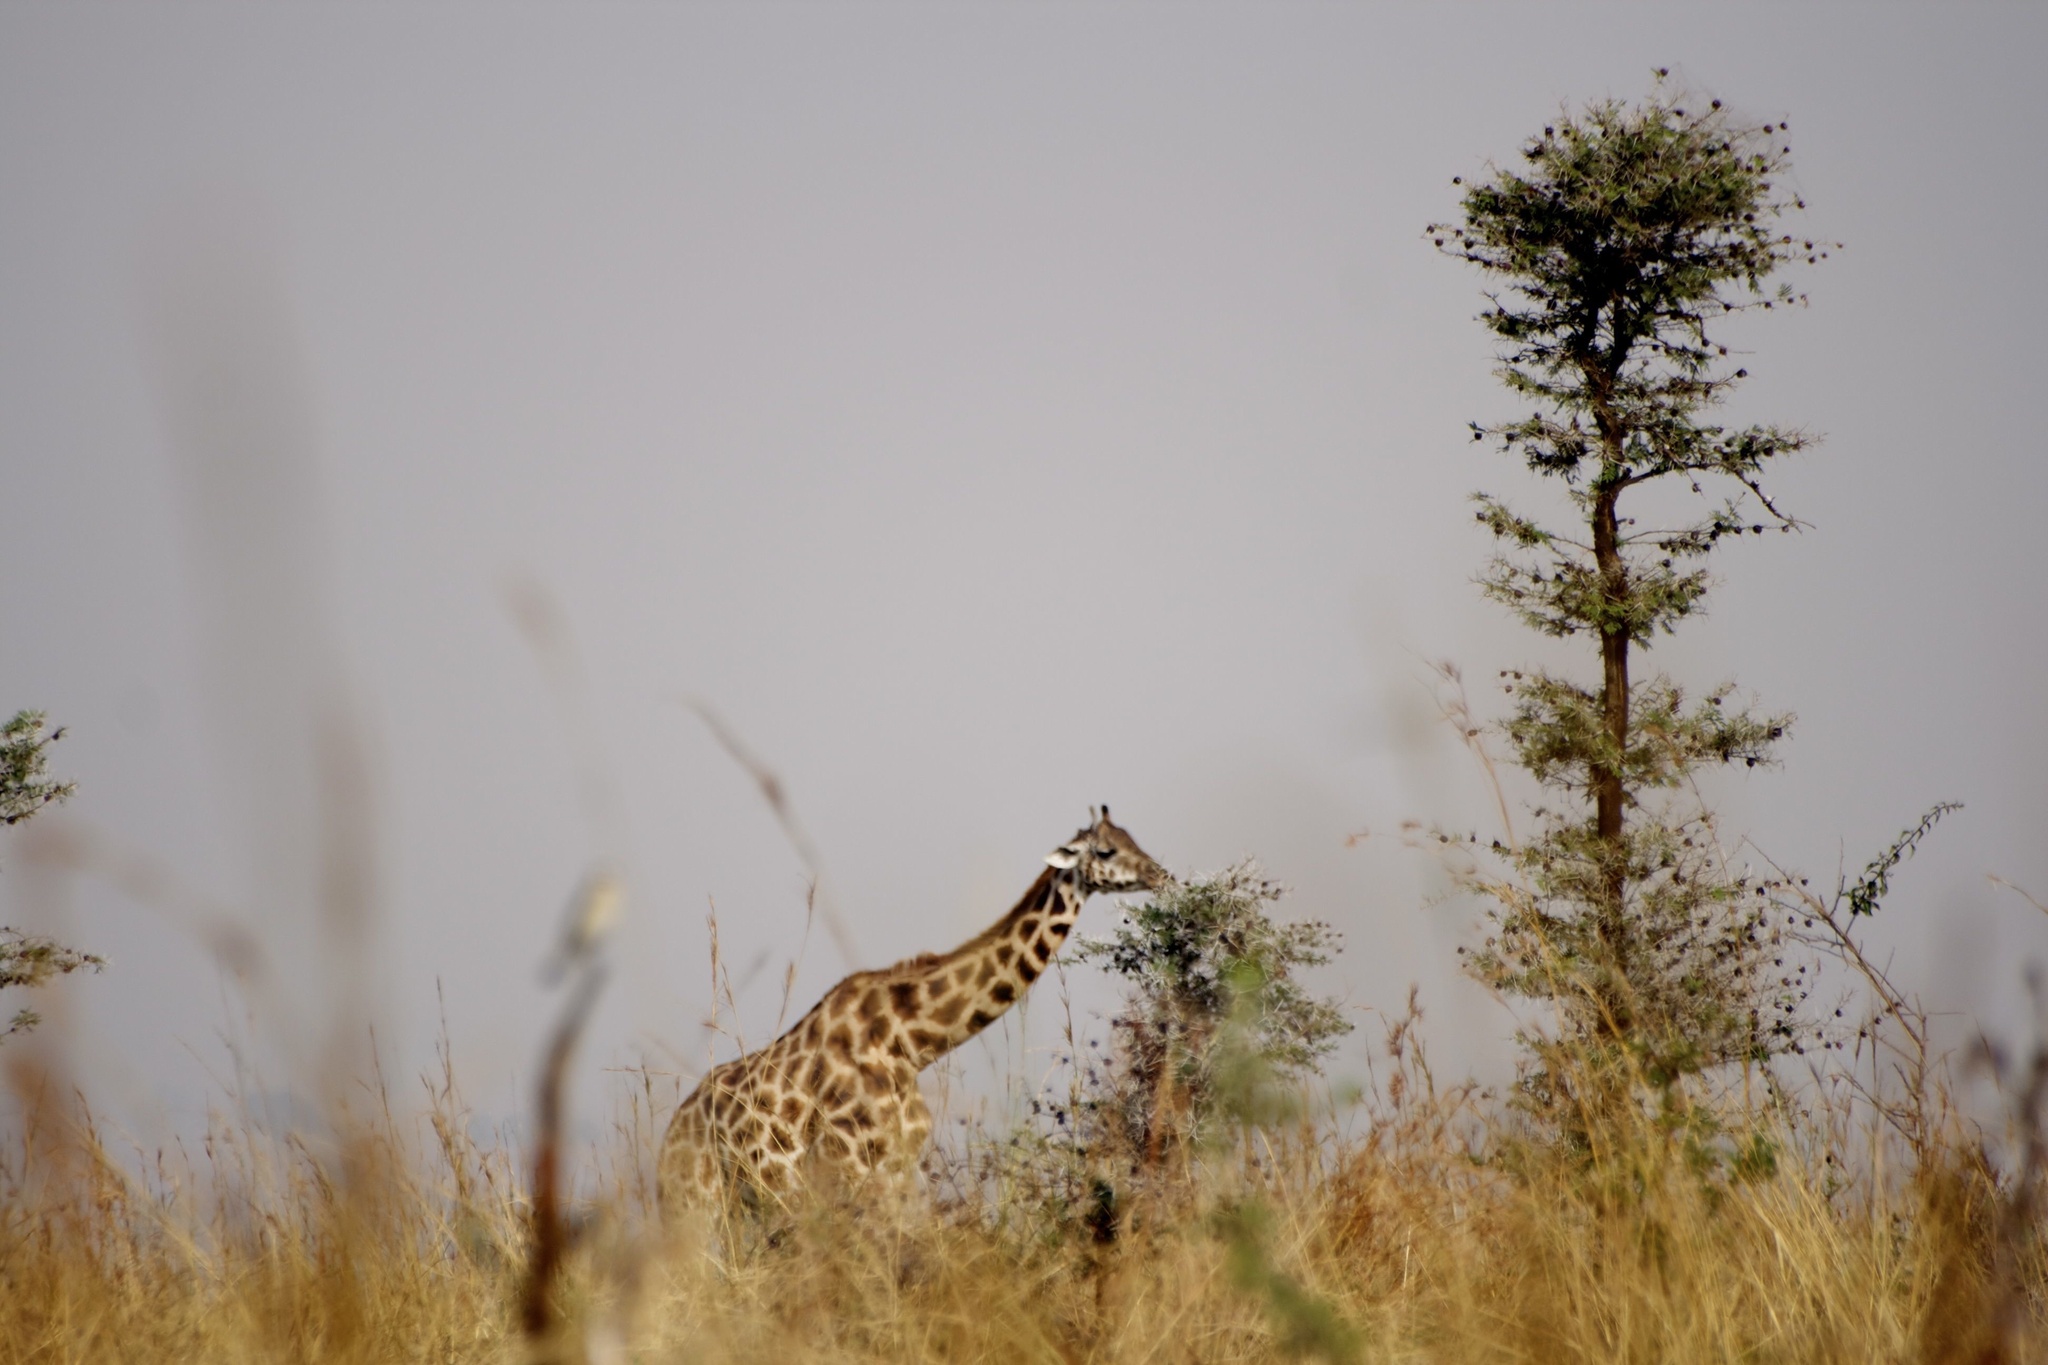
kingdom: Animalia
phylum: Chordata
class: Mammalia
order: Artiodactyla
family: Giraffidae
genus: Giraffa
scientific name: Giraffa camelopardalis
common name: Giraffe
